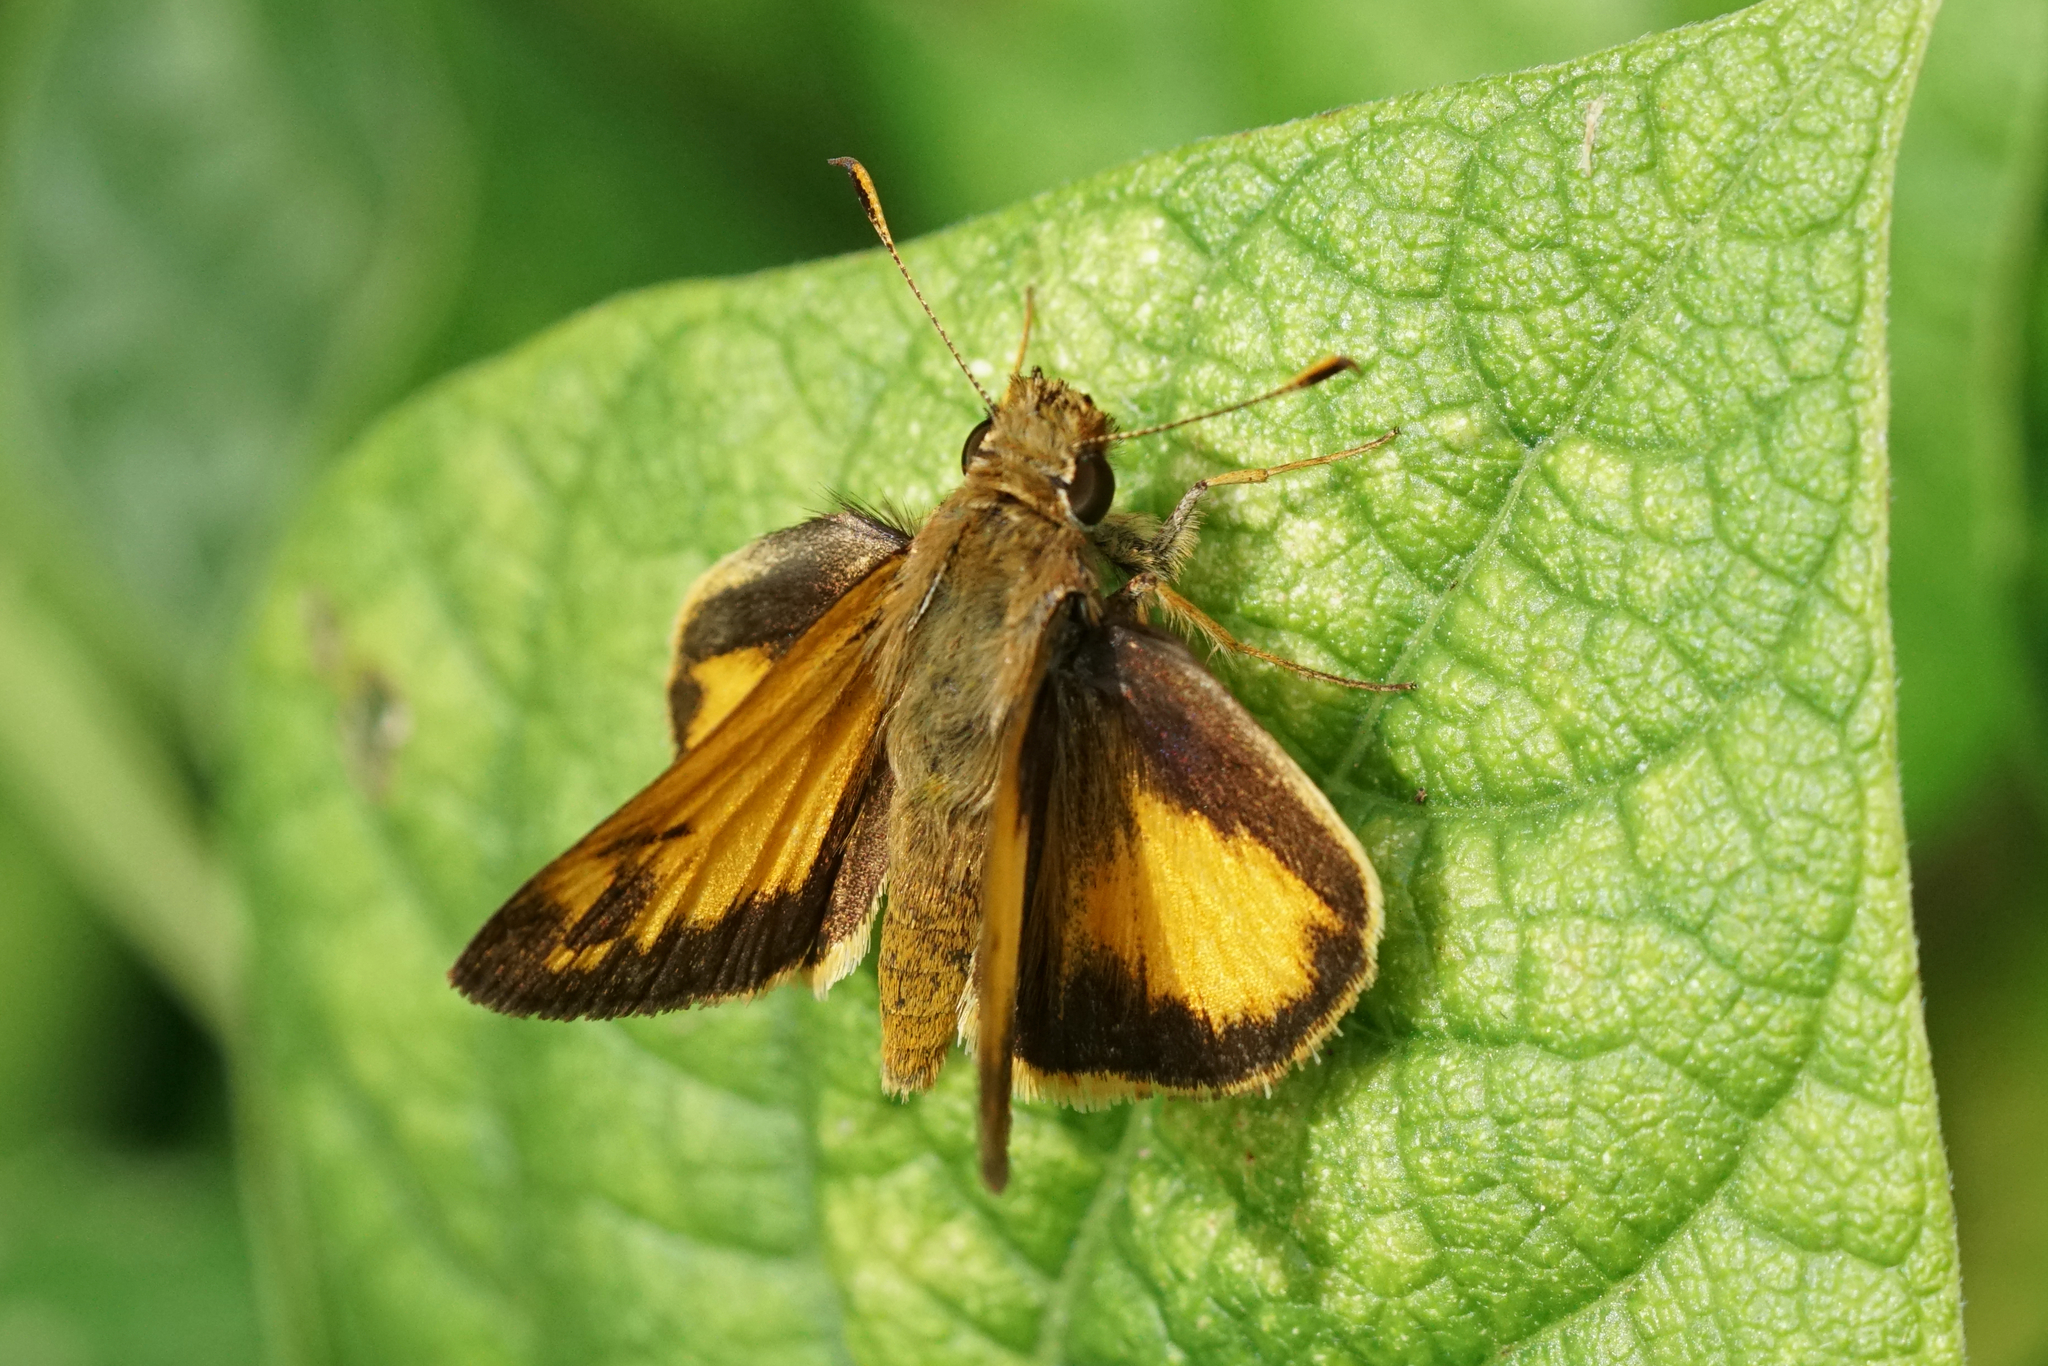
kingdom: Animalia
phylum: Arthropoda
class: Insecta
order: Lepidoptera
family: Hesperiidae
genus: Lon
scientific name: Lon zabulon
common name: Zabulon skipper
